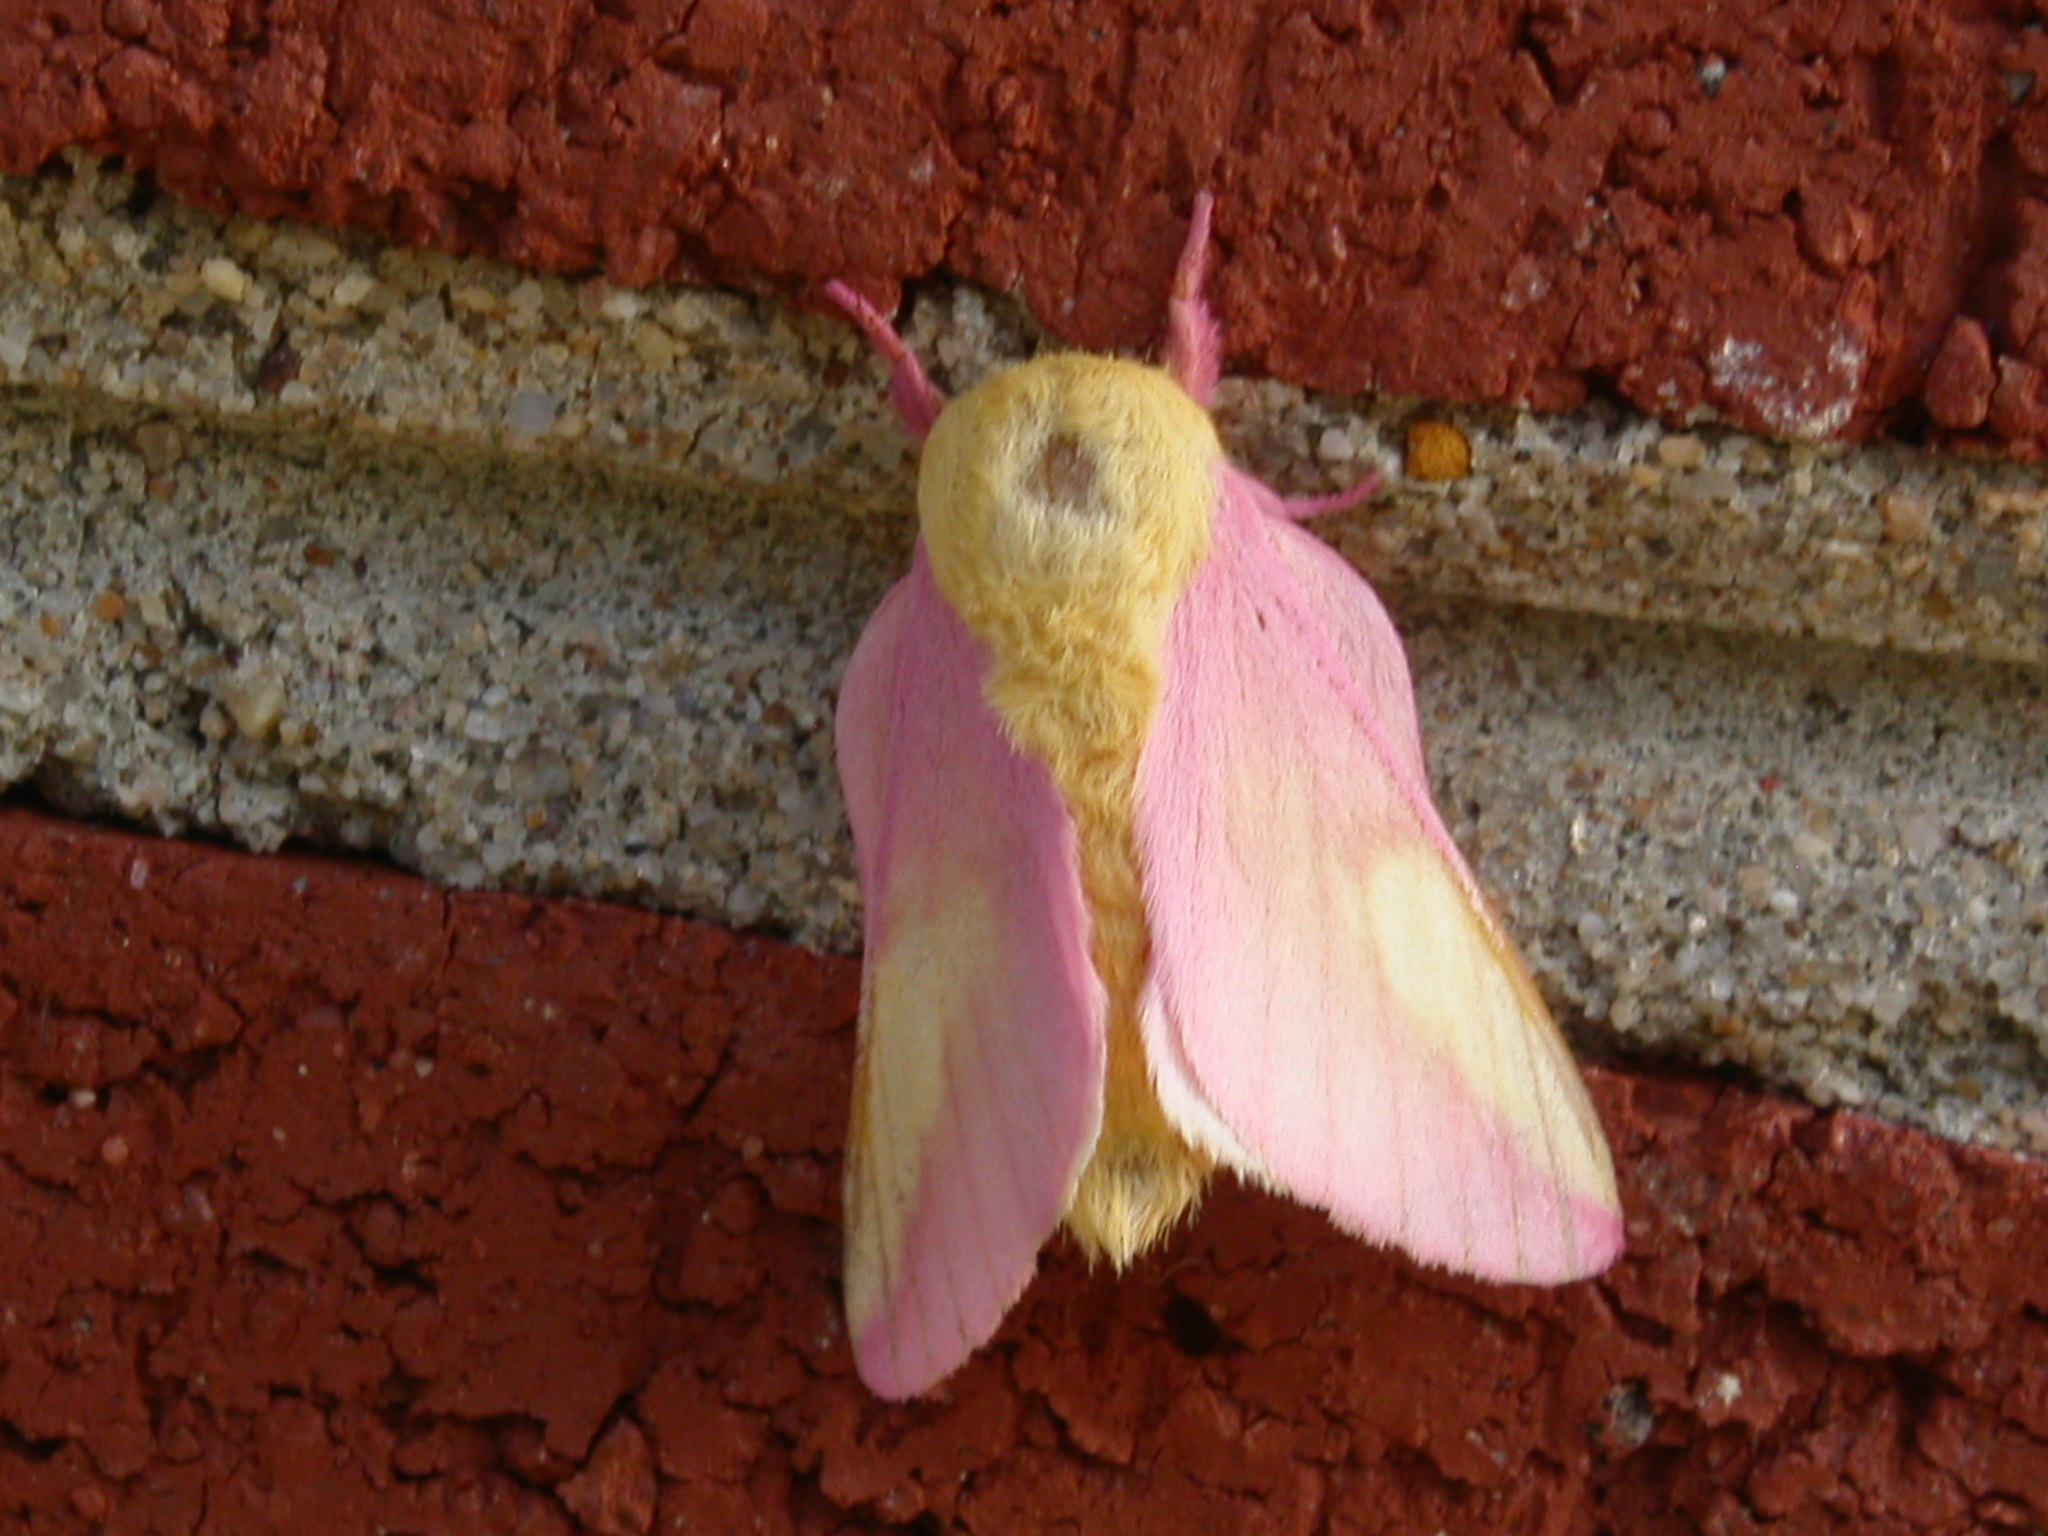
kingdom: Animalia
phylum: Arthropoda
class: Insecta
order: Lepidoptera
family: Saturniidae
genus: Dryocampa
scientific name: Dryocampa rubicunda
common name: Rosy maple moth
